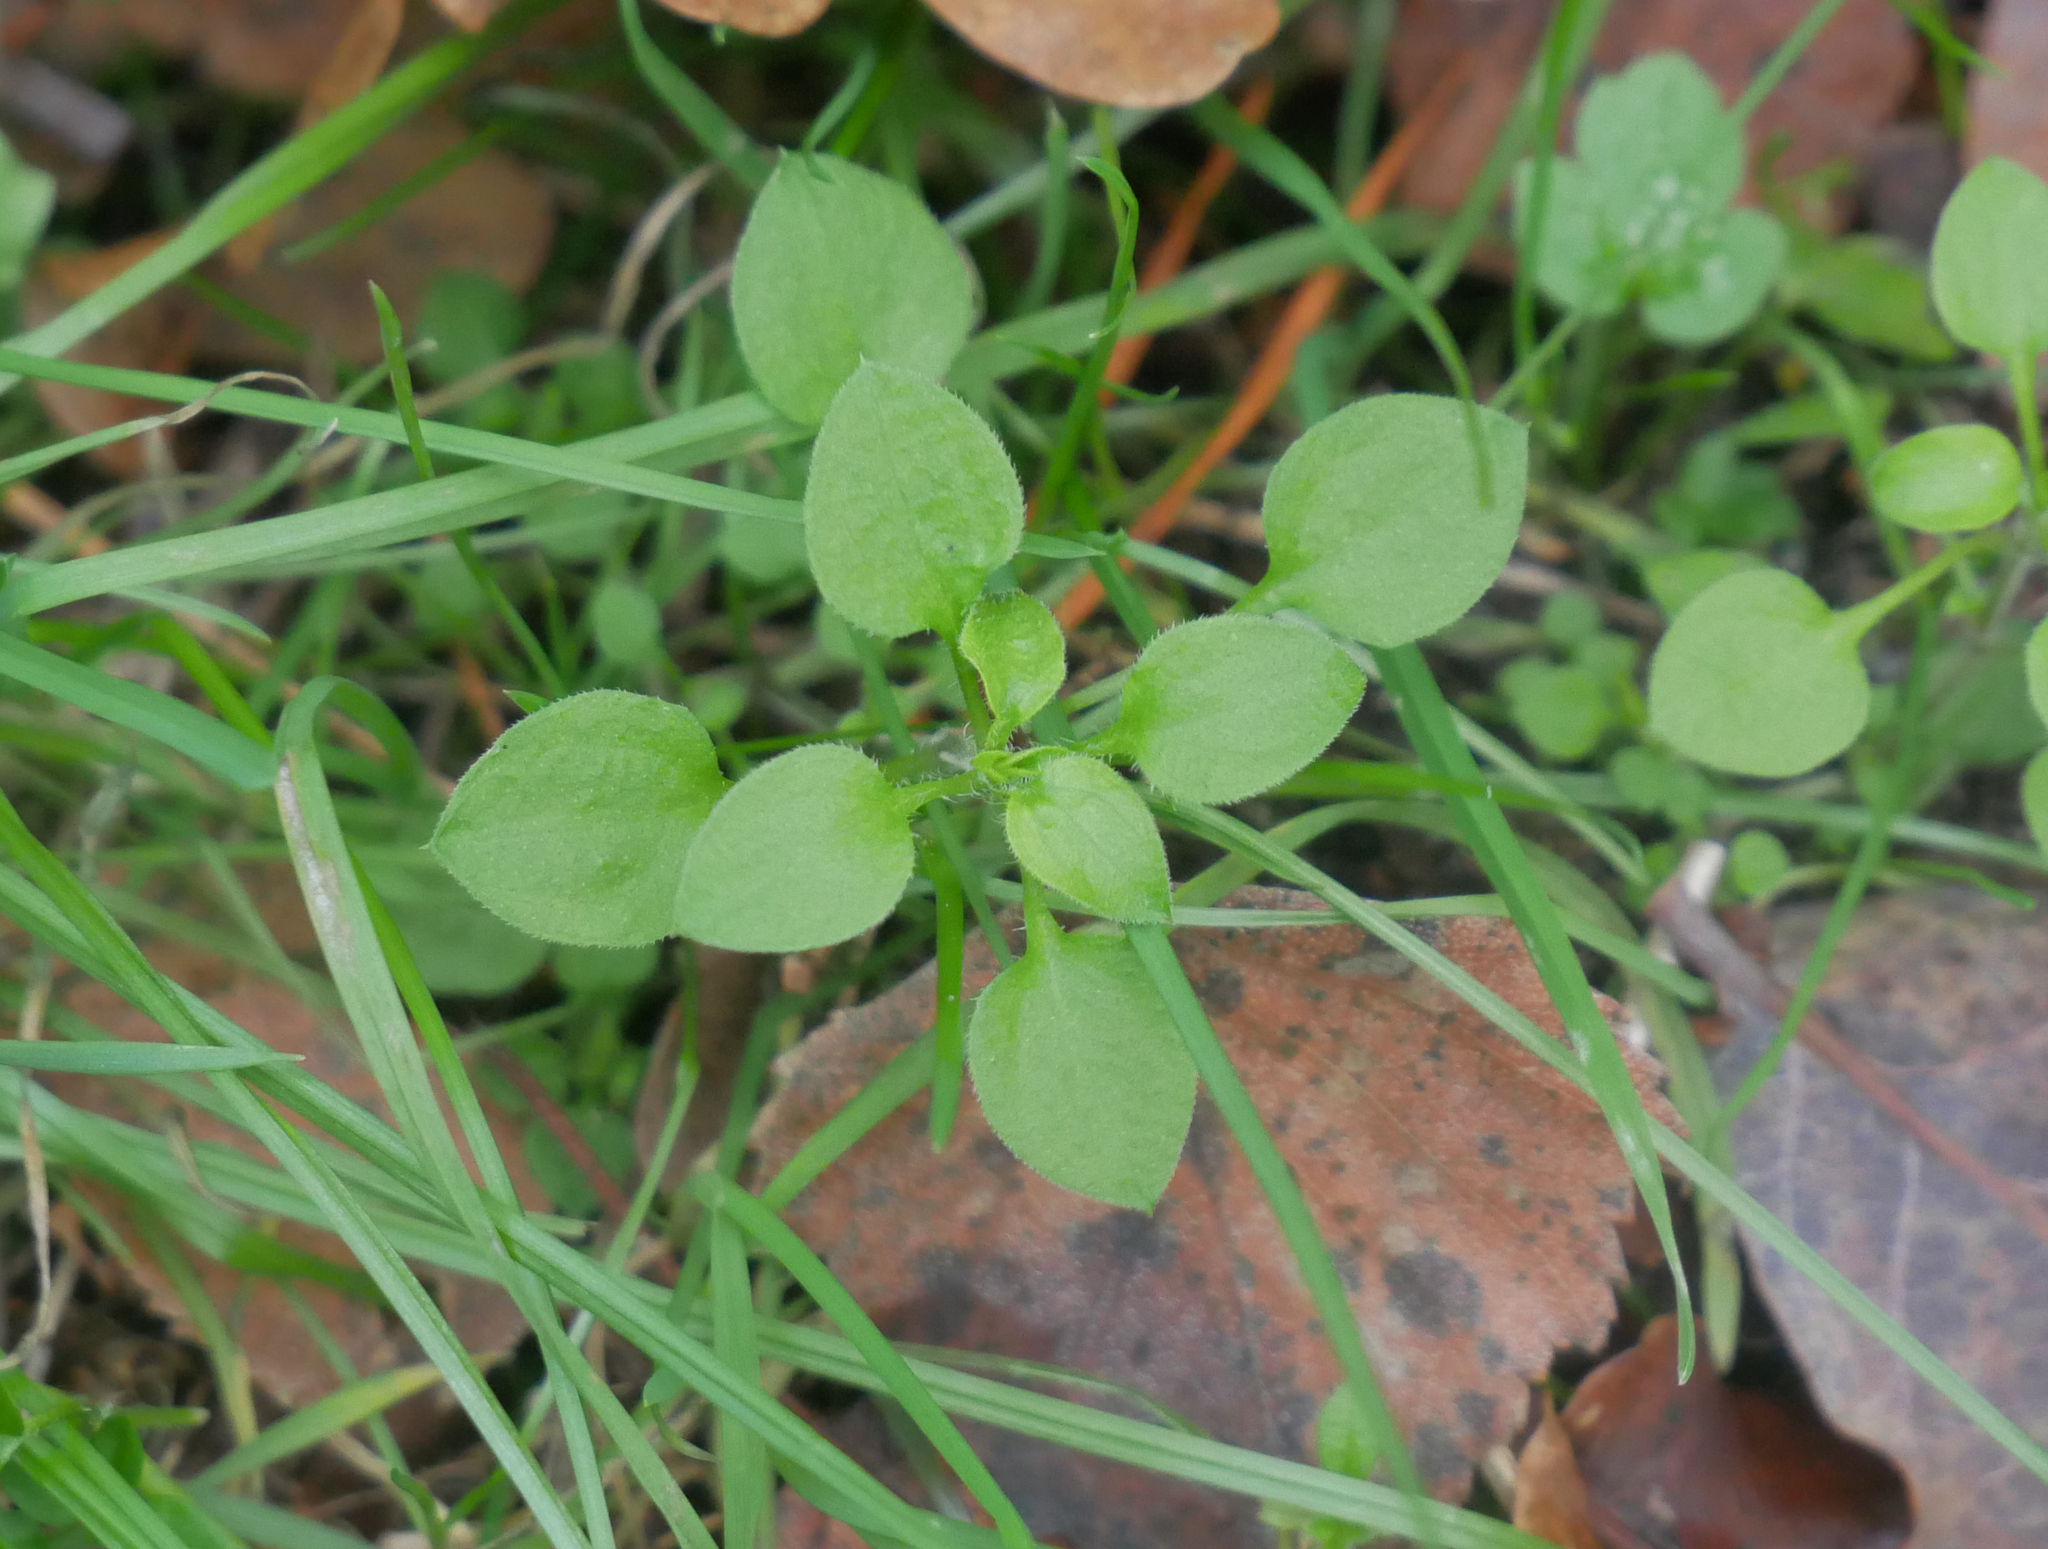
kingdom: Plantae
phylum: Tracheophyta
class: Magnoliopsida
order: Caryophyllales
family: Caryophyllaceae
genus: Moehringia
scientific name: Moehringia trinervia
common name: Three-nerved sandwort
